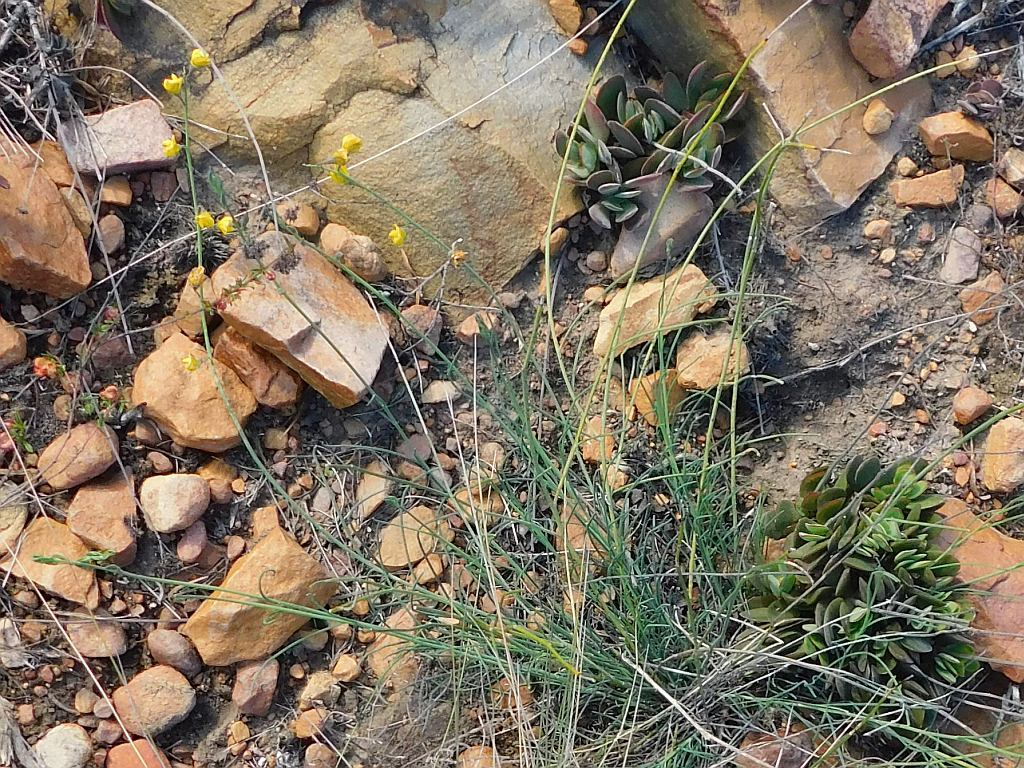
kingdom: Plantae
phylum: Tracheophyta
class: Magnoliopsida
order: Fabales
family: Fabaceae
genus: Lebeckia
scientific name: Lebeckia pauciflora
